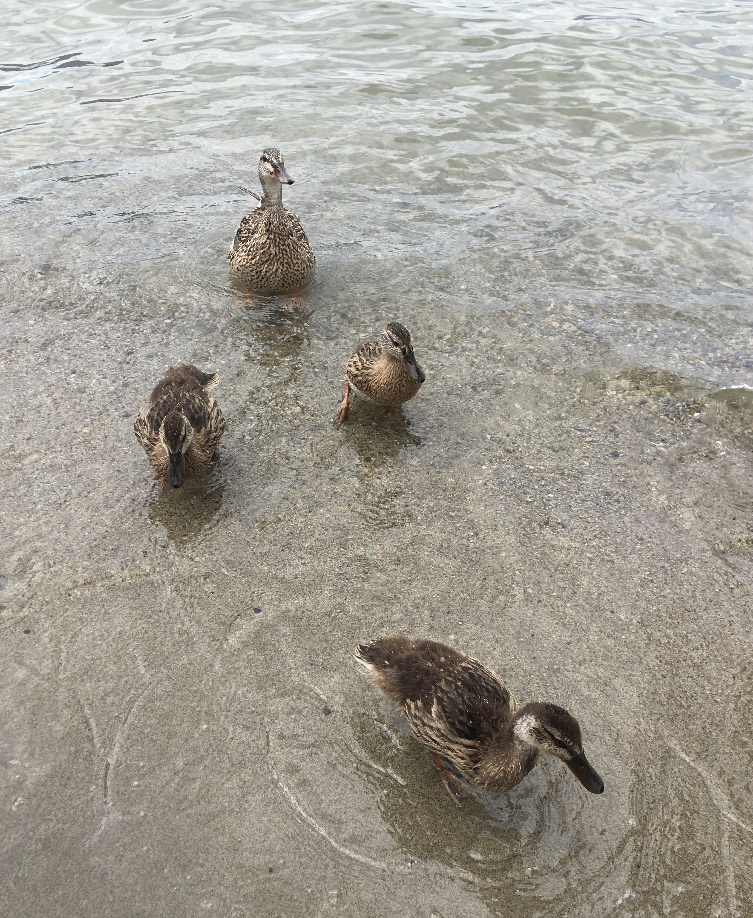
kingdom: Animalia
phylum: Chordata
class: Aves
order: Anseriformes
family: Anatidae
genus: Anas
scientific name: Anas platyrhynchos
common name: Mallard
